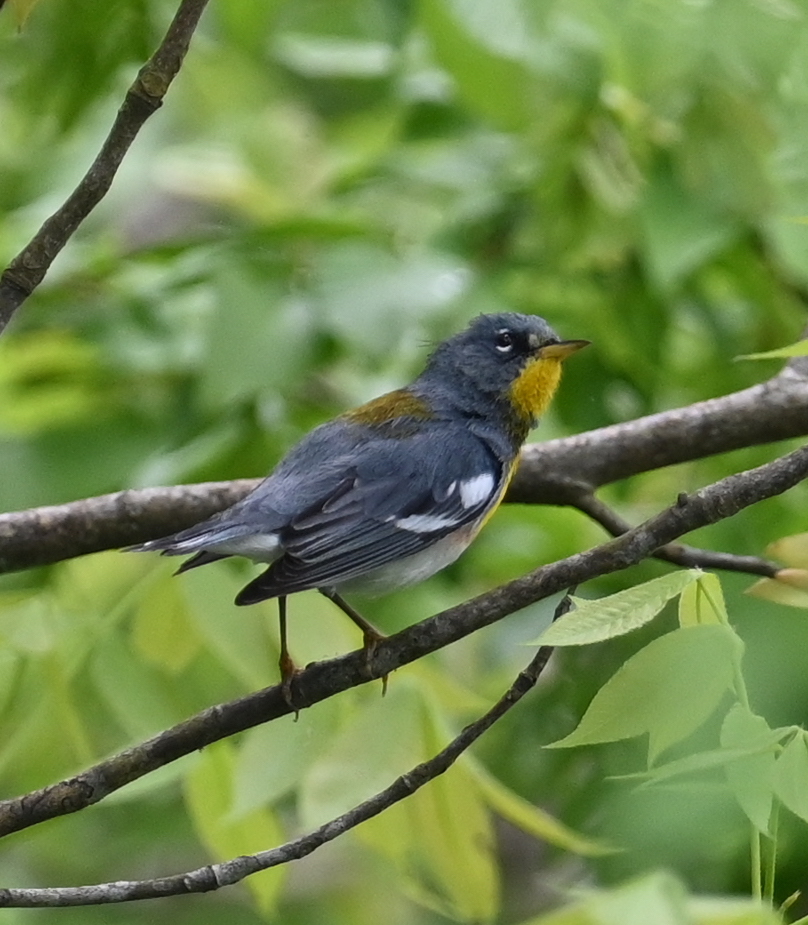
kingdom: Animalia
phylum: Chordata
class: Aves
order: Passeriformes
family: Parulidae
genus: Setophaga
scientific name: Setophaga americana
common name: Northern parula
